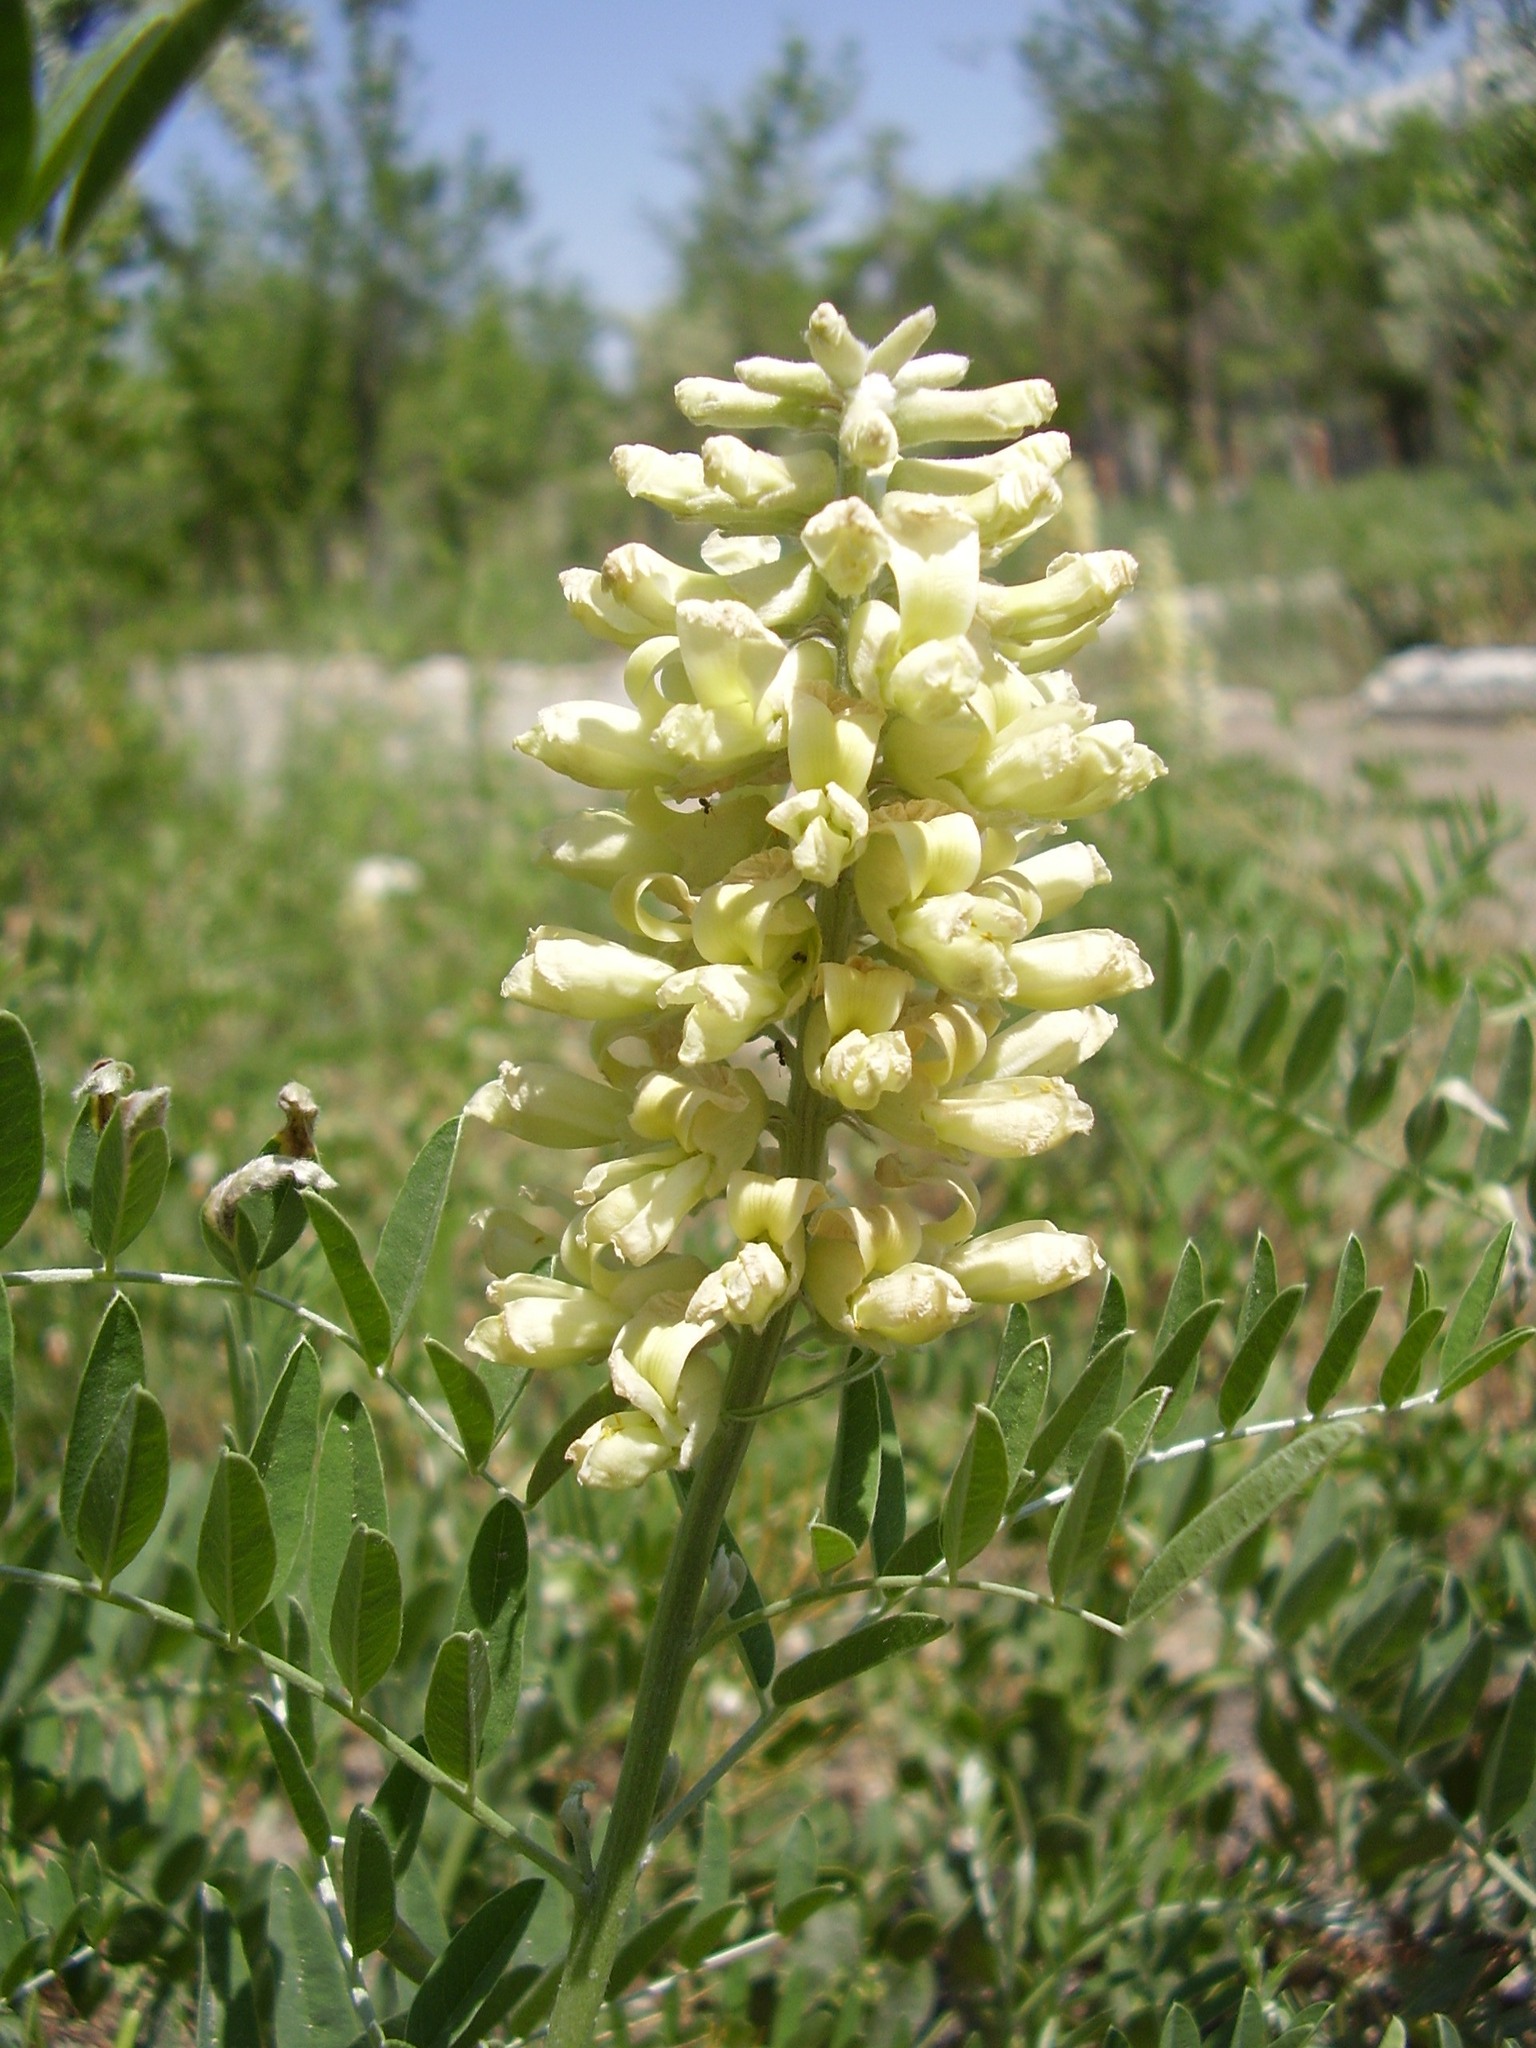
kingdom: Plantae
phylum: Tracheophyta
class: Magnoliopsida
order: Fabales
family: Fabaceae
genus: Sophora
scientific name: Sophora alopecuroides
